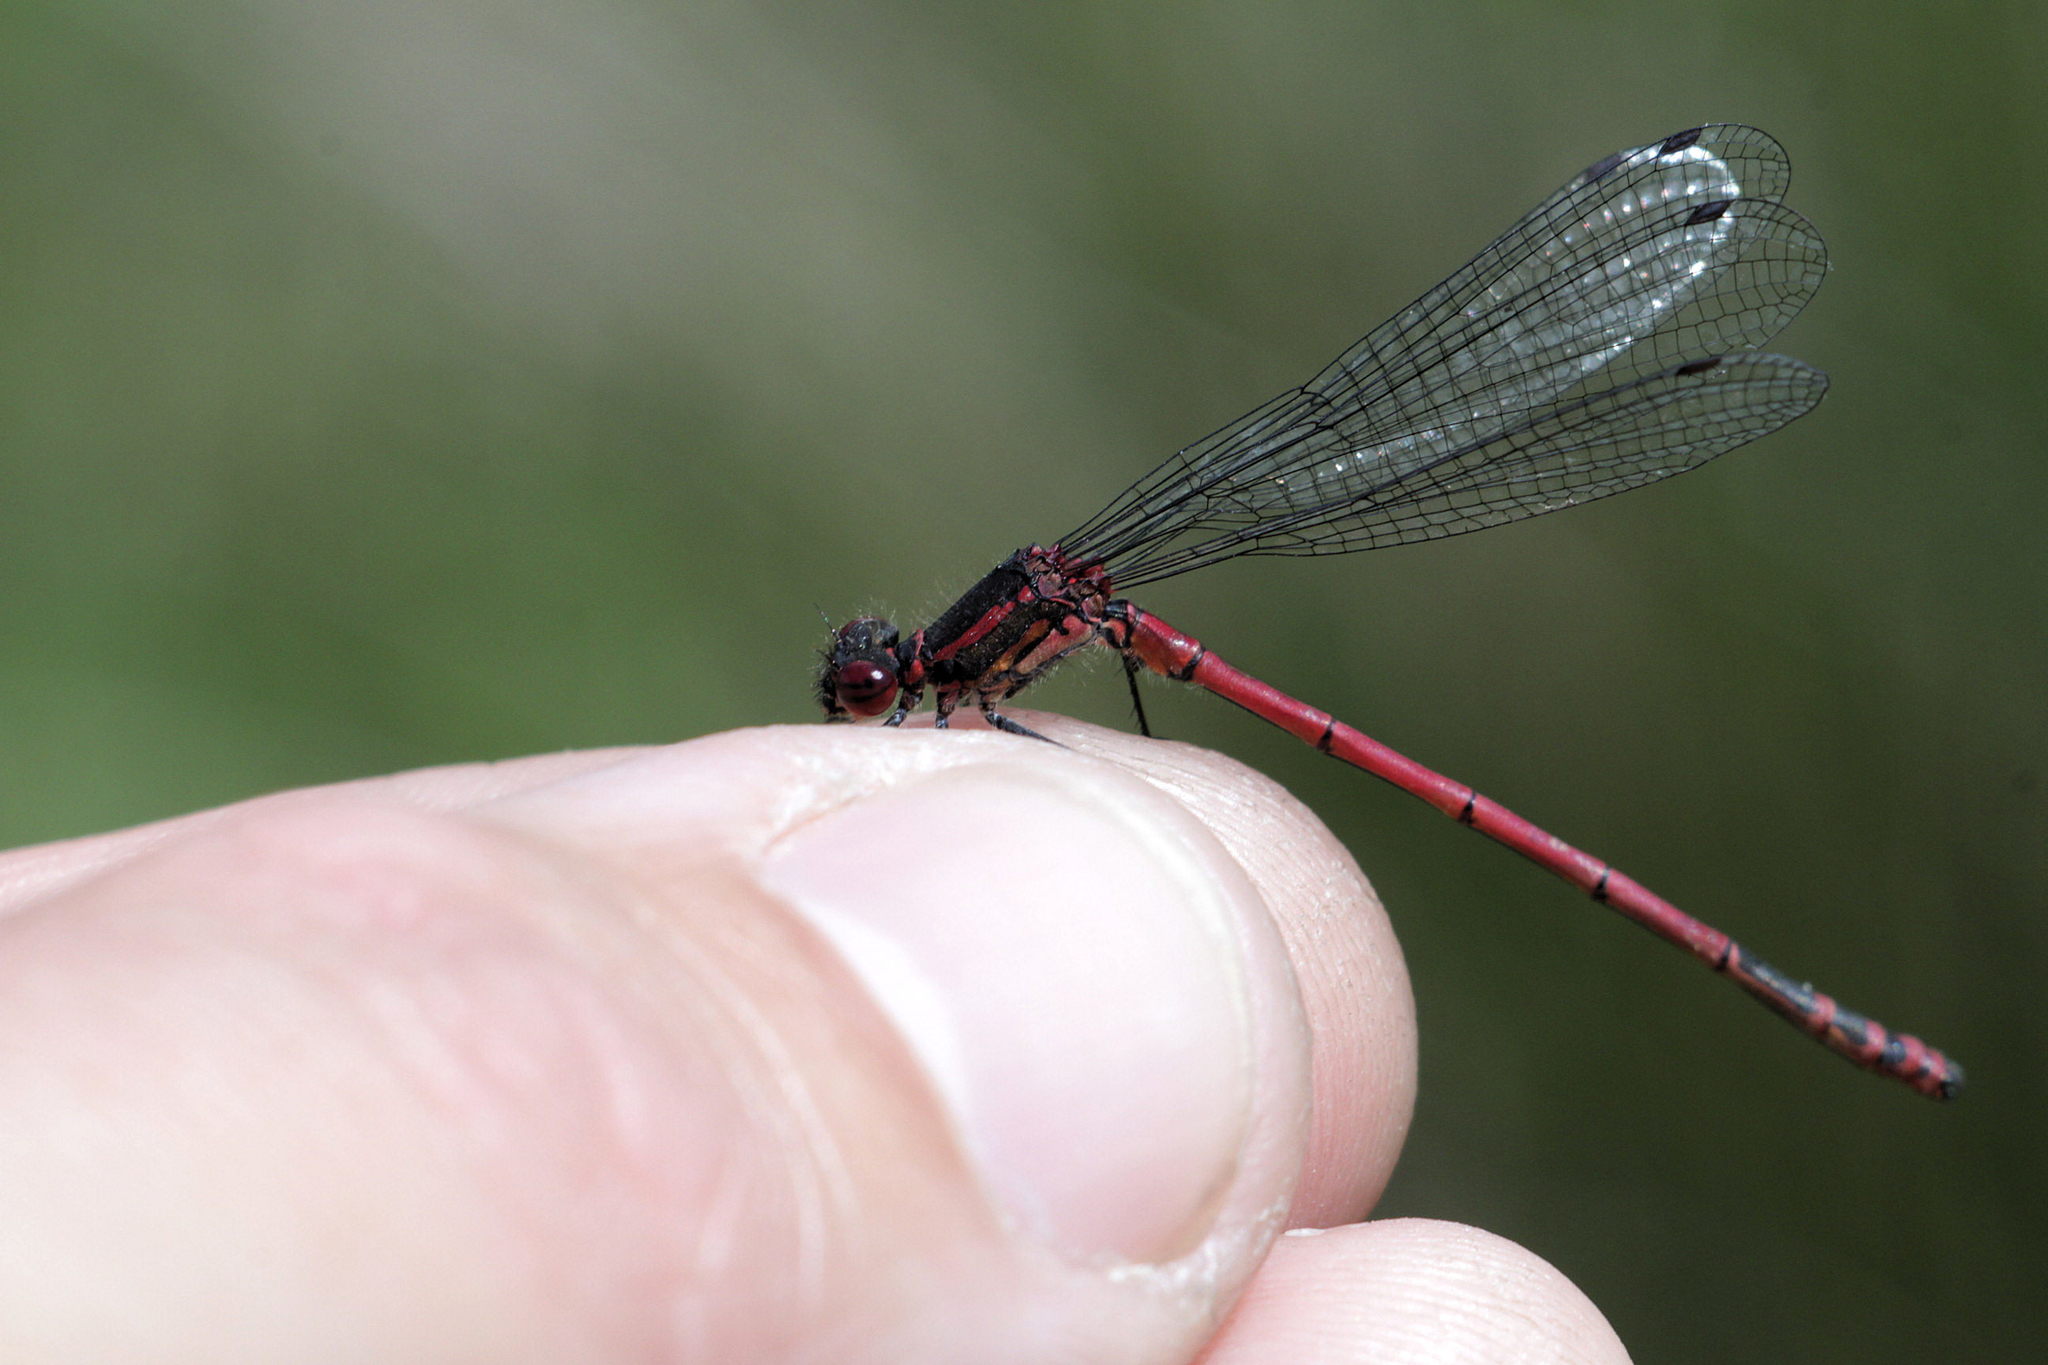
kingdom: Animalia
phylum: Arthropoda
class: Insecta
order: Odonata
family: Coenagrionidae
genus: Pyrrhosoma
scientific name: Pyrrhosoma nymphula
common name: Large red damsel
